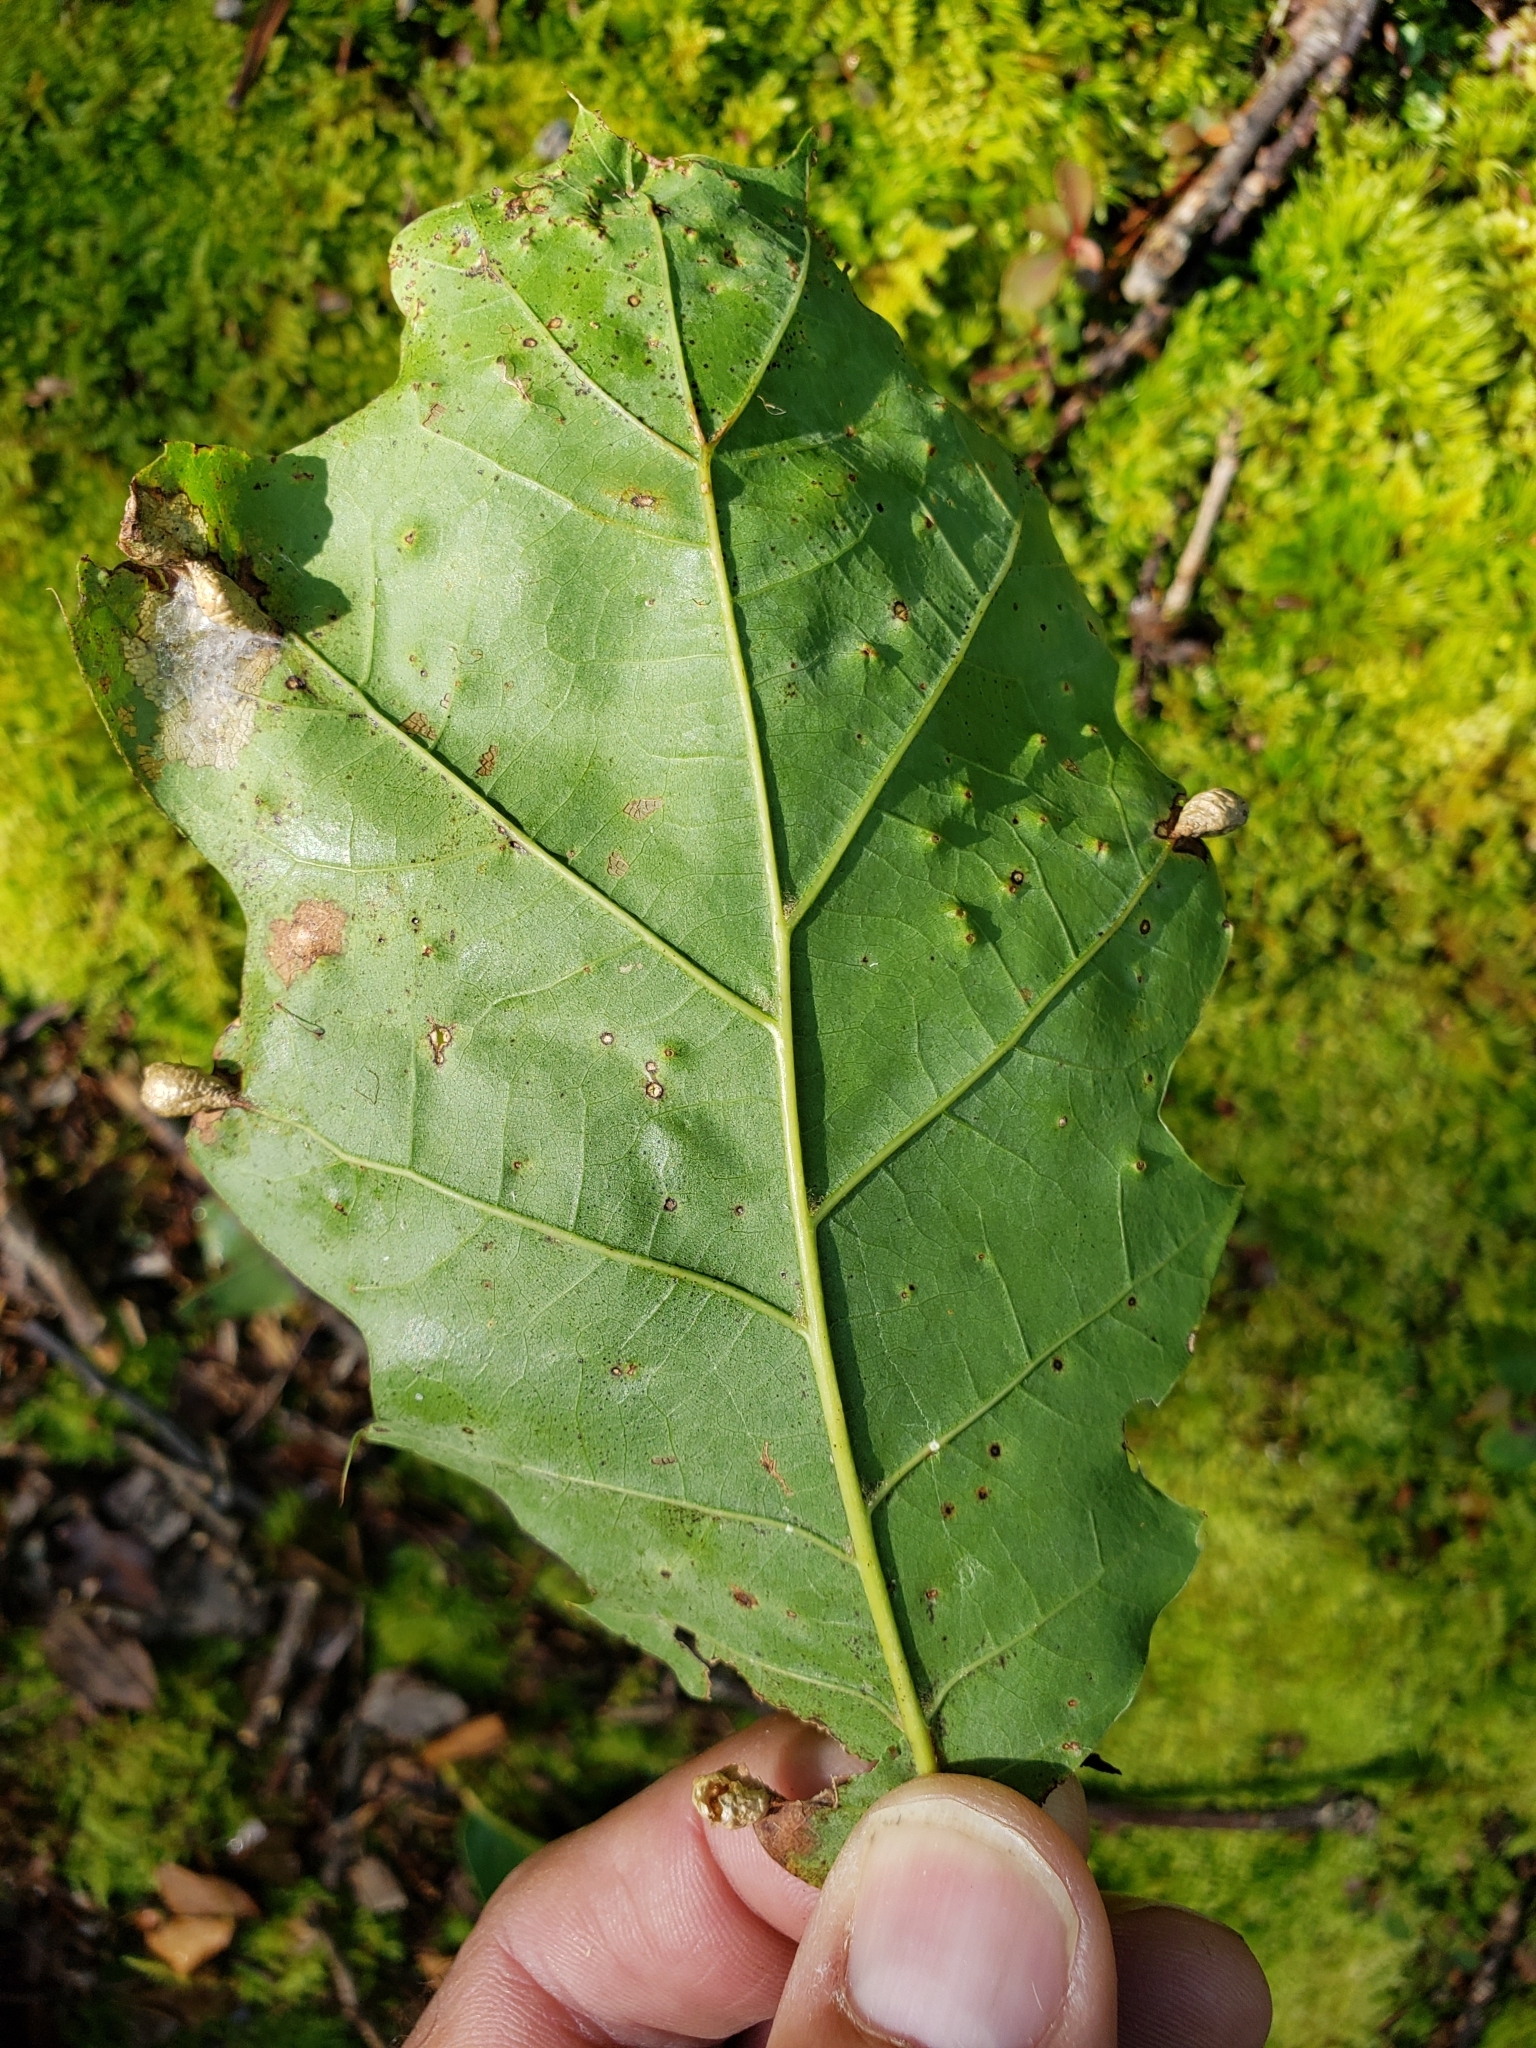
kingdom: Animalia
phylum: Arthropoda
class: Insecta
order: Diptera
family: Cecidomyiidae
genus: Macrodiplosis
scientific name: Macrodiplosis majalis
